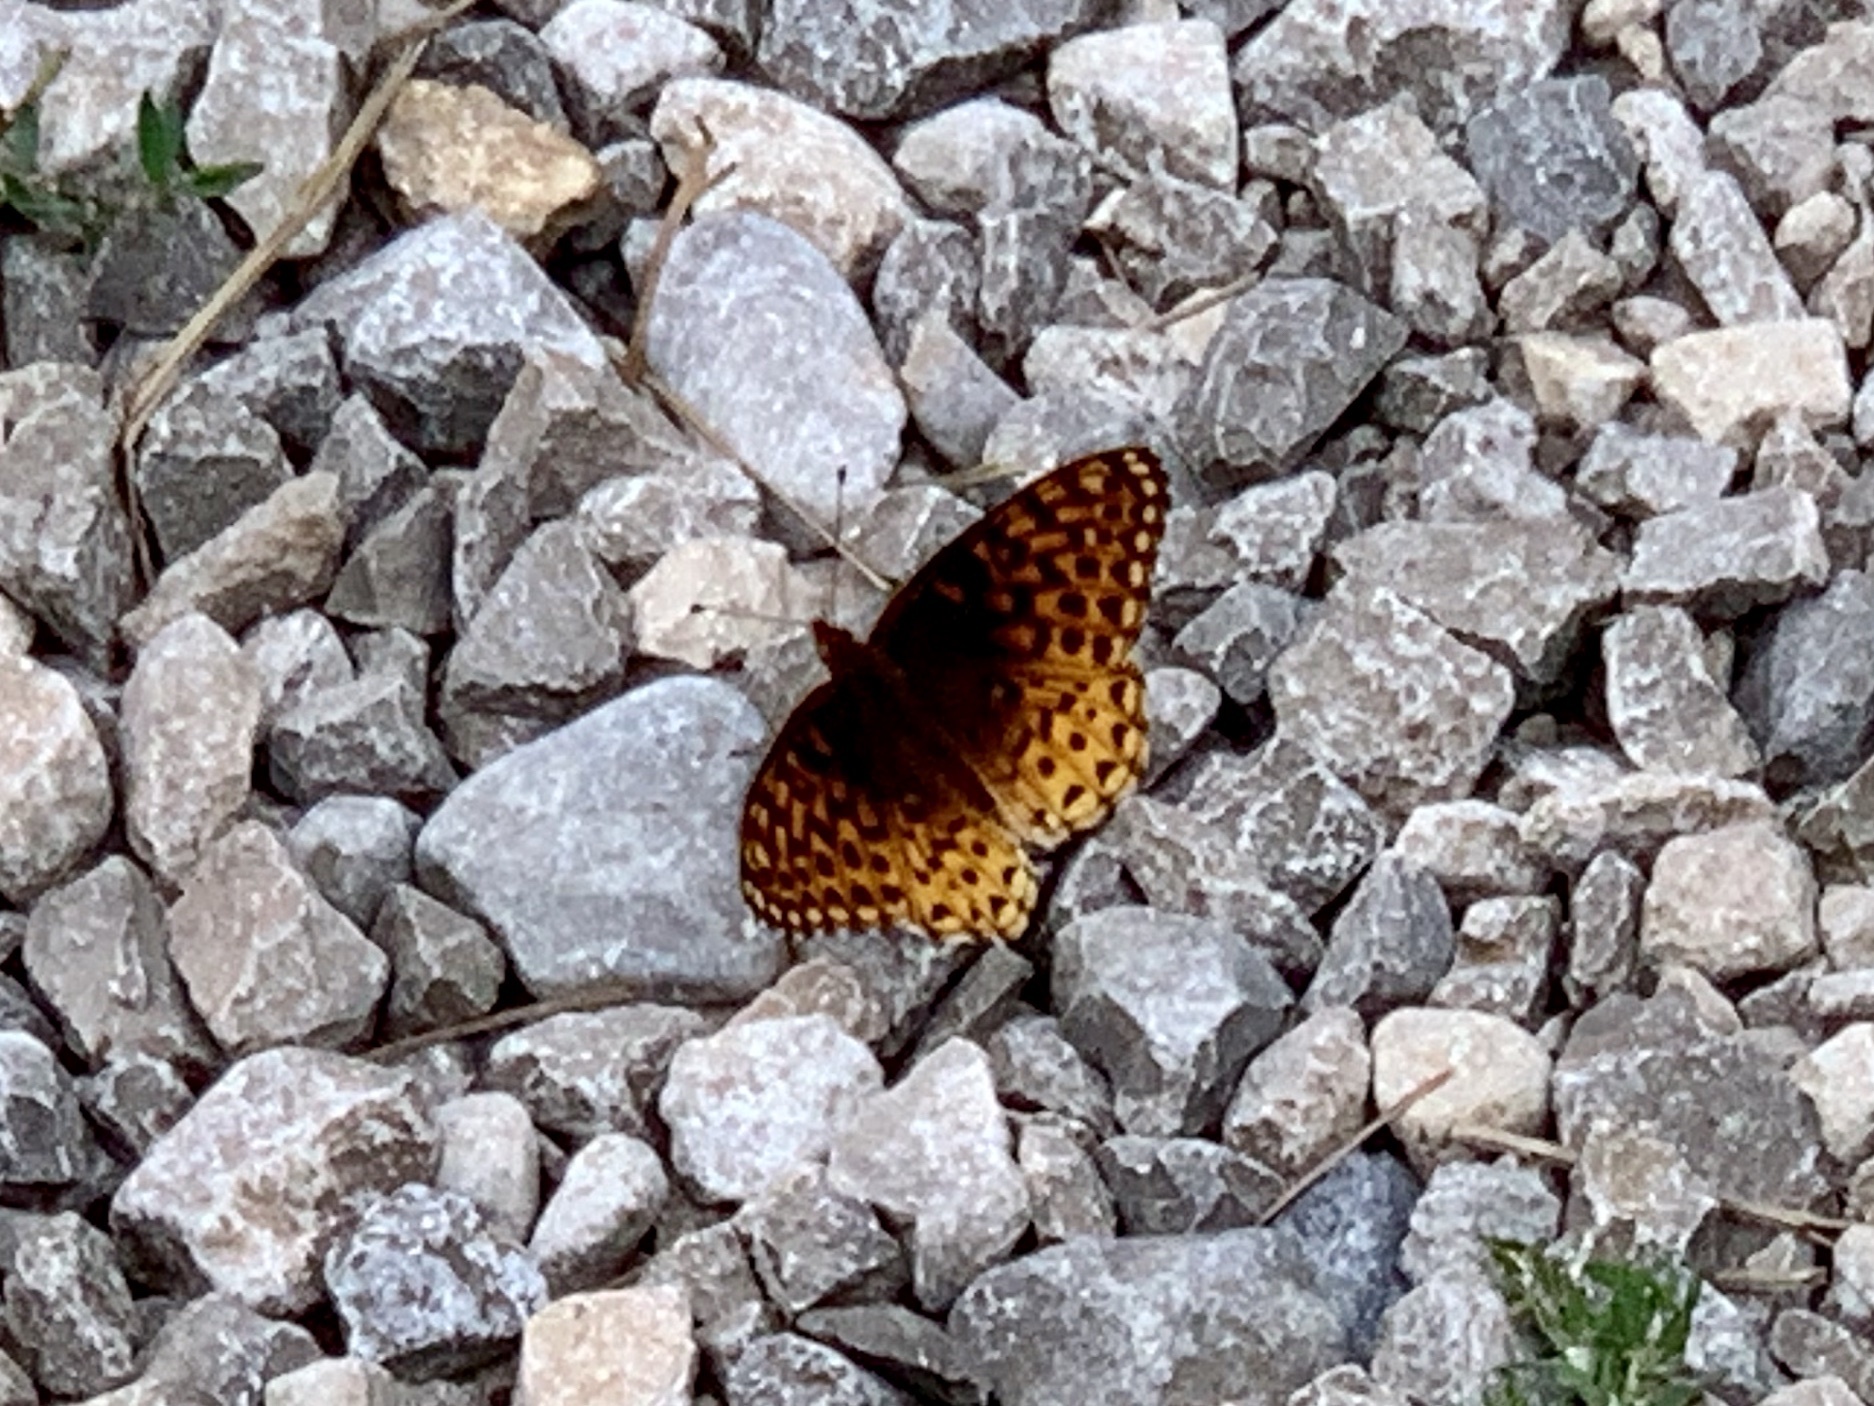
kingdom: Animalia
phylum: Arthropoda
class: Insecta
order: Lepidoptera
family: Nymphalidae
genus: Speyeria
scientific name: Speyeria atlantis
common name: Atlantis fritillary
